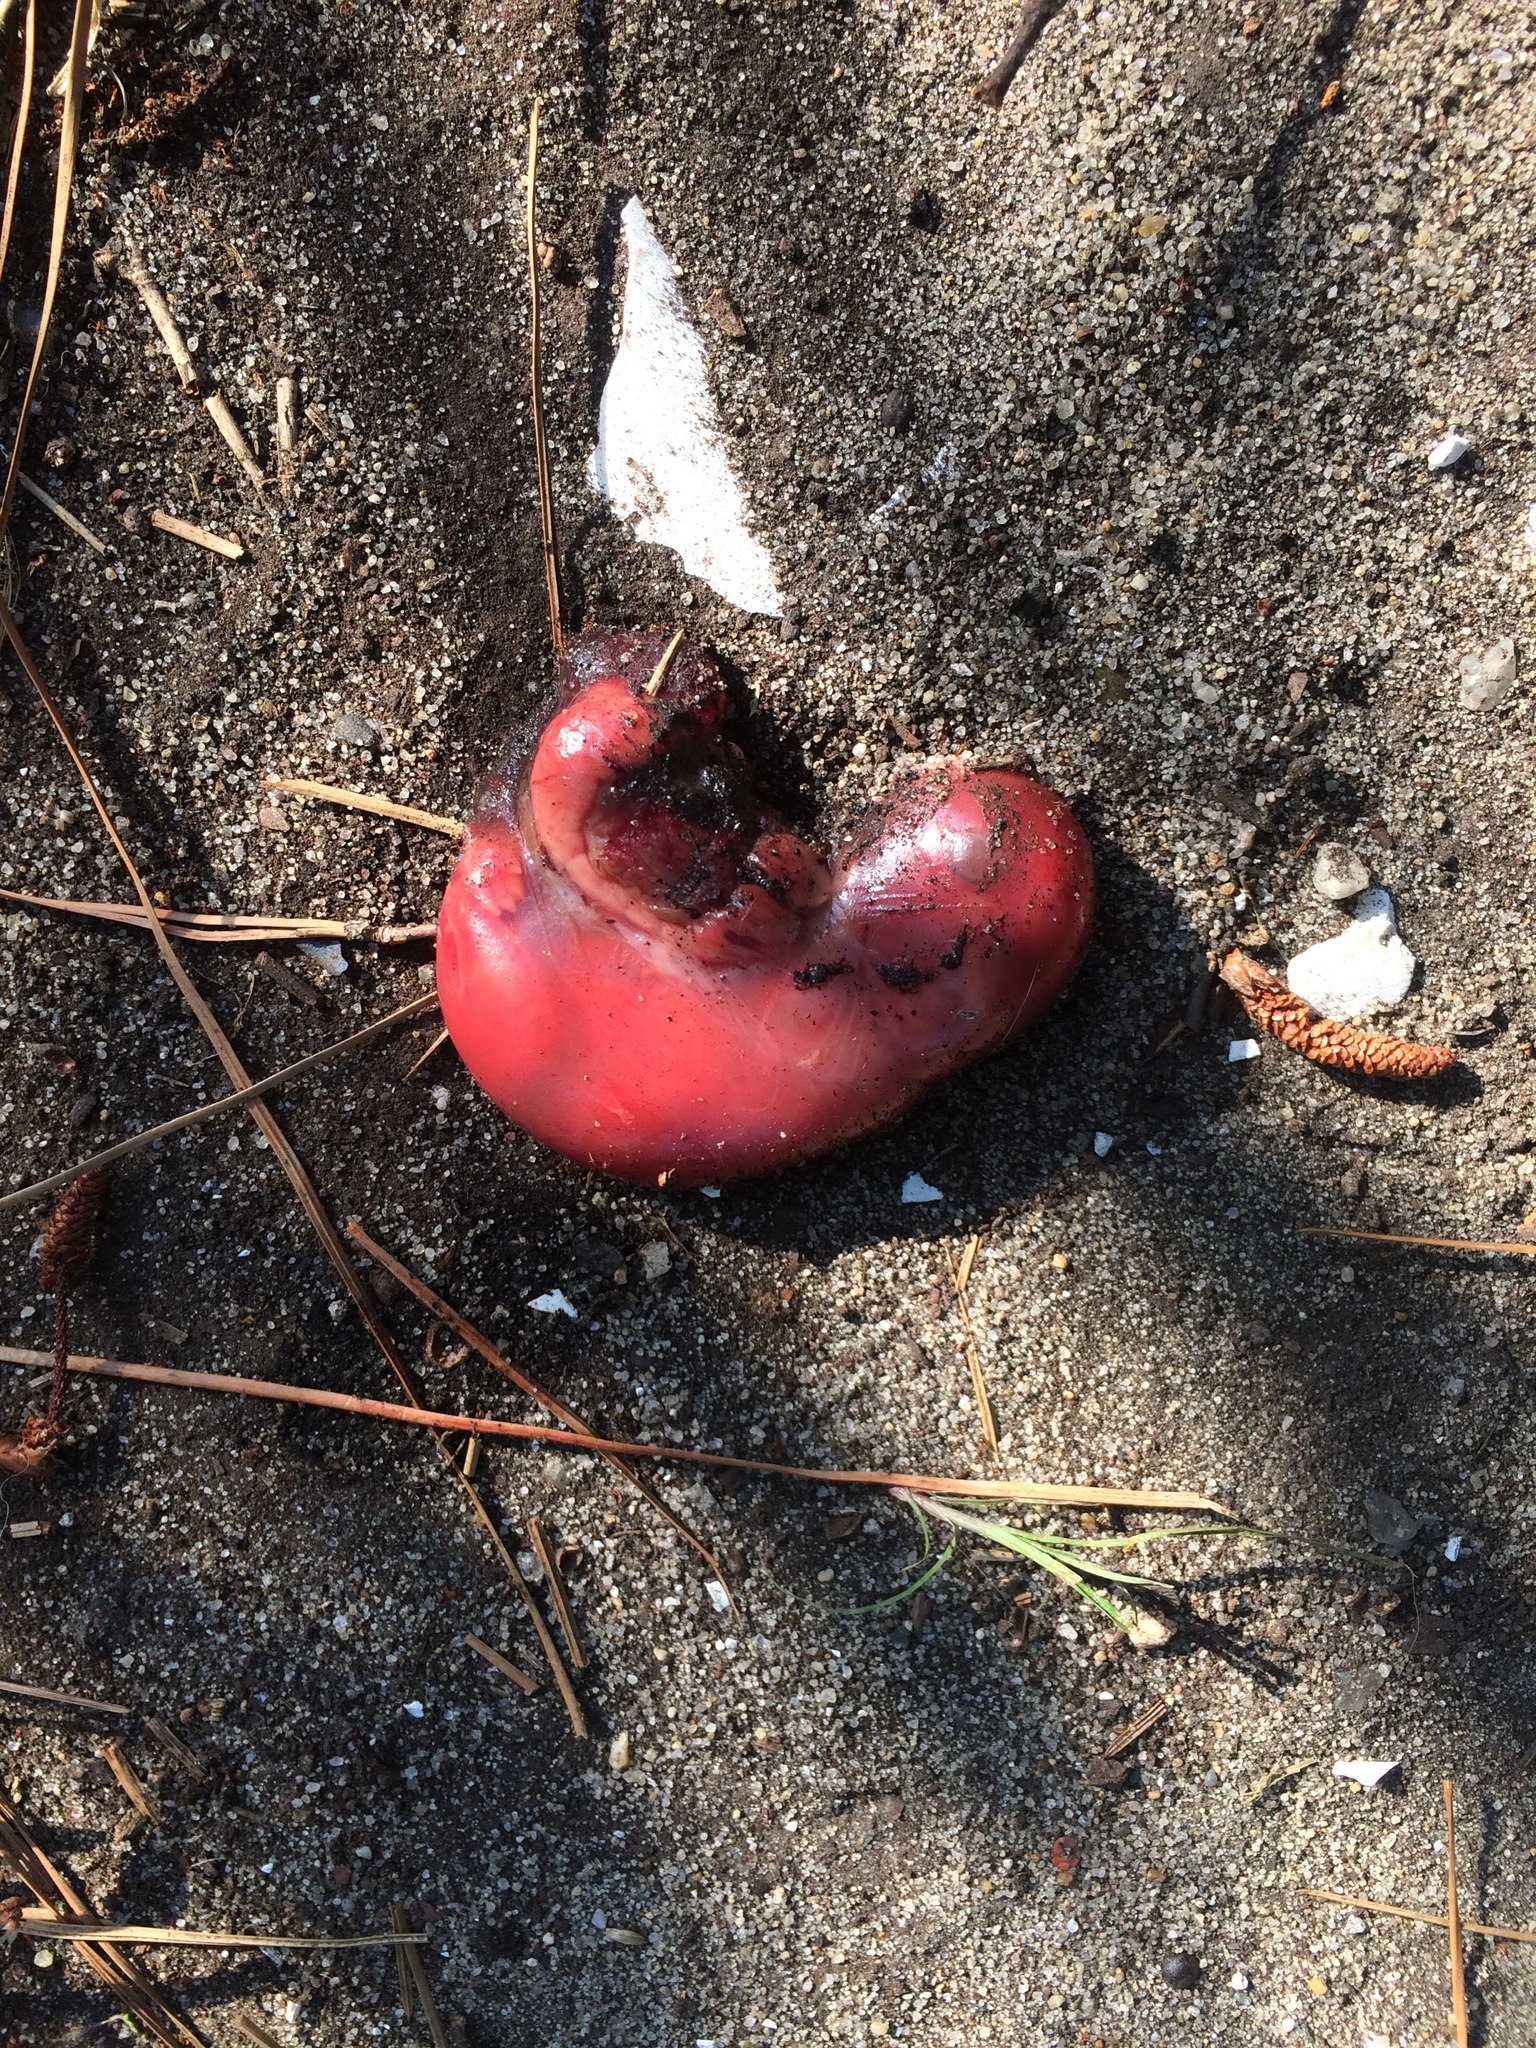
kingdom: Animalia
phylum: Chordata
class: Mammalia
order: Lagomorpha
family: Leporidae
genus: Sylvilagus
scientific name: Sylvilagus floridanus
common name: Eastern cottontail
